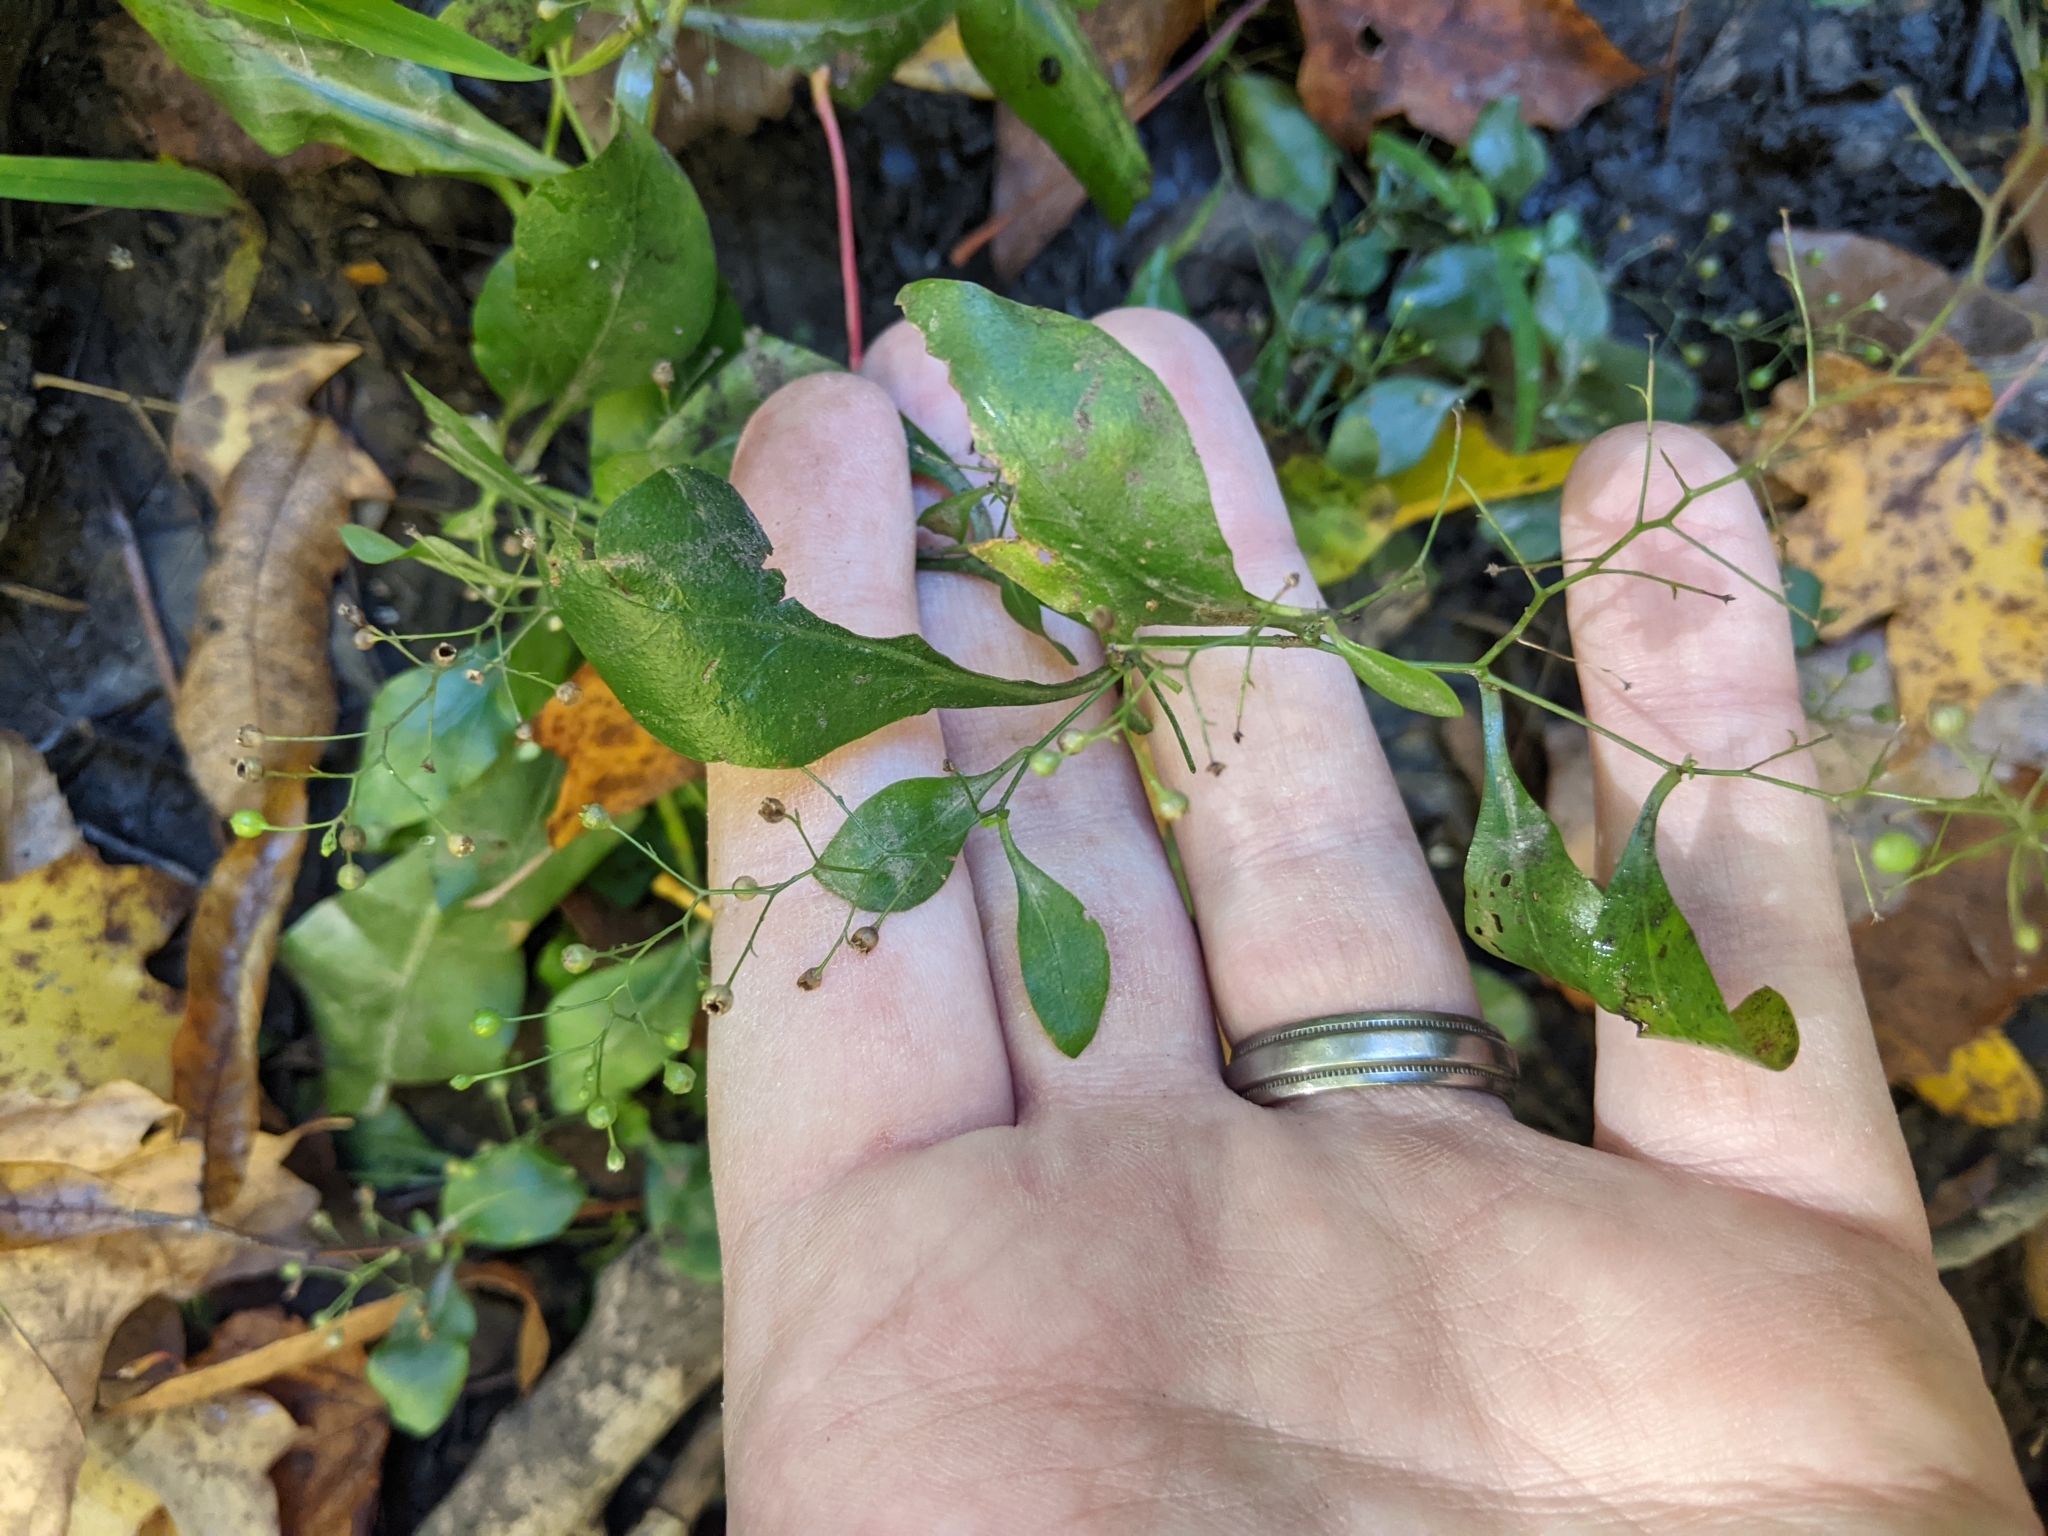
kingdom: Plantae
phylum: Tracheophyta
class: Magnoliopsida
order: Ericales
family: Primulaceae
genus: Samolus
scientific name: Samolus parviflorus
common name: False water pimpernel
